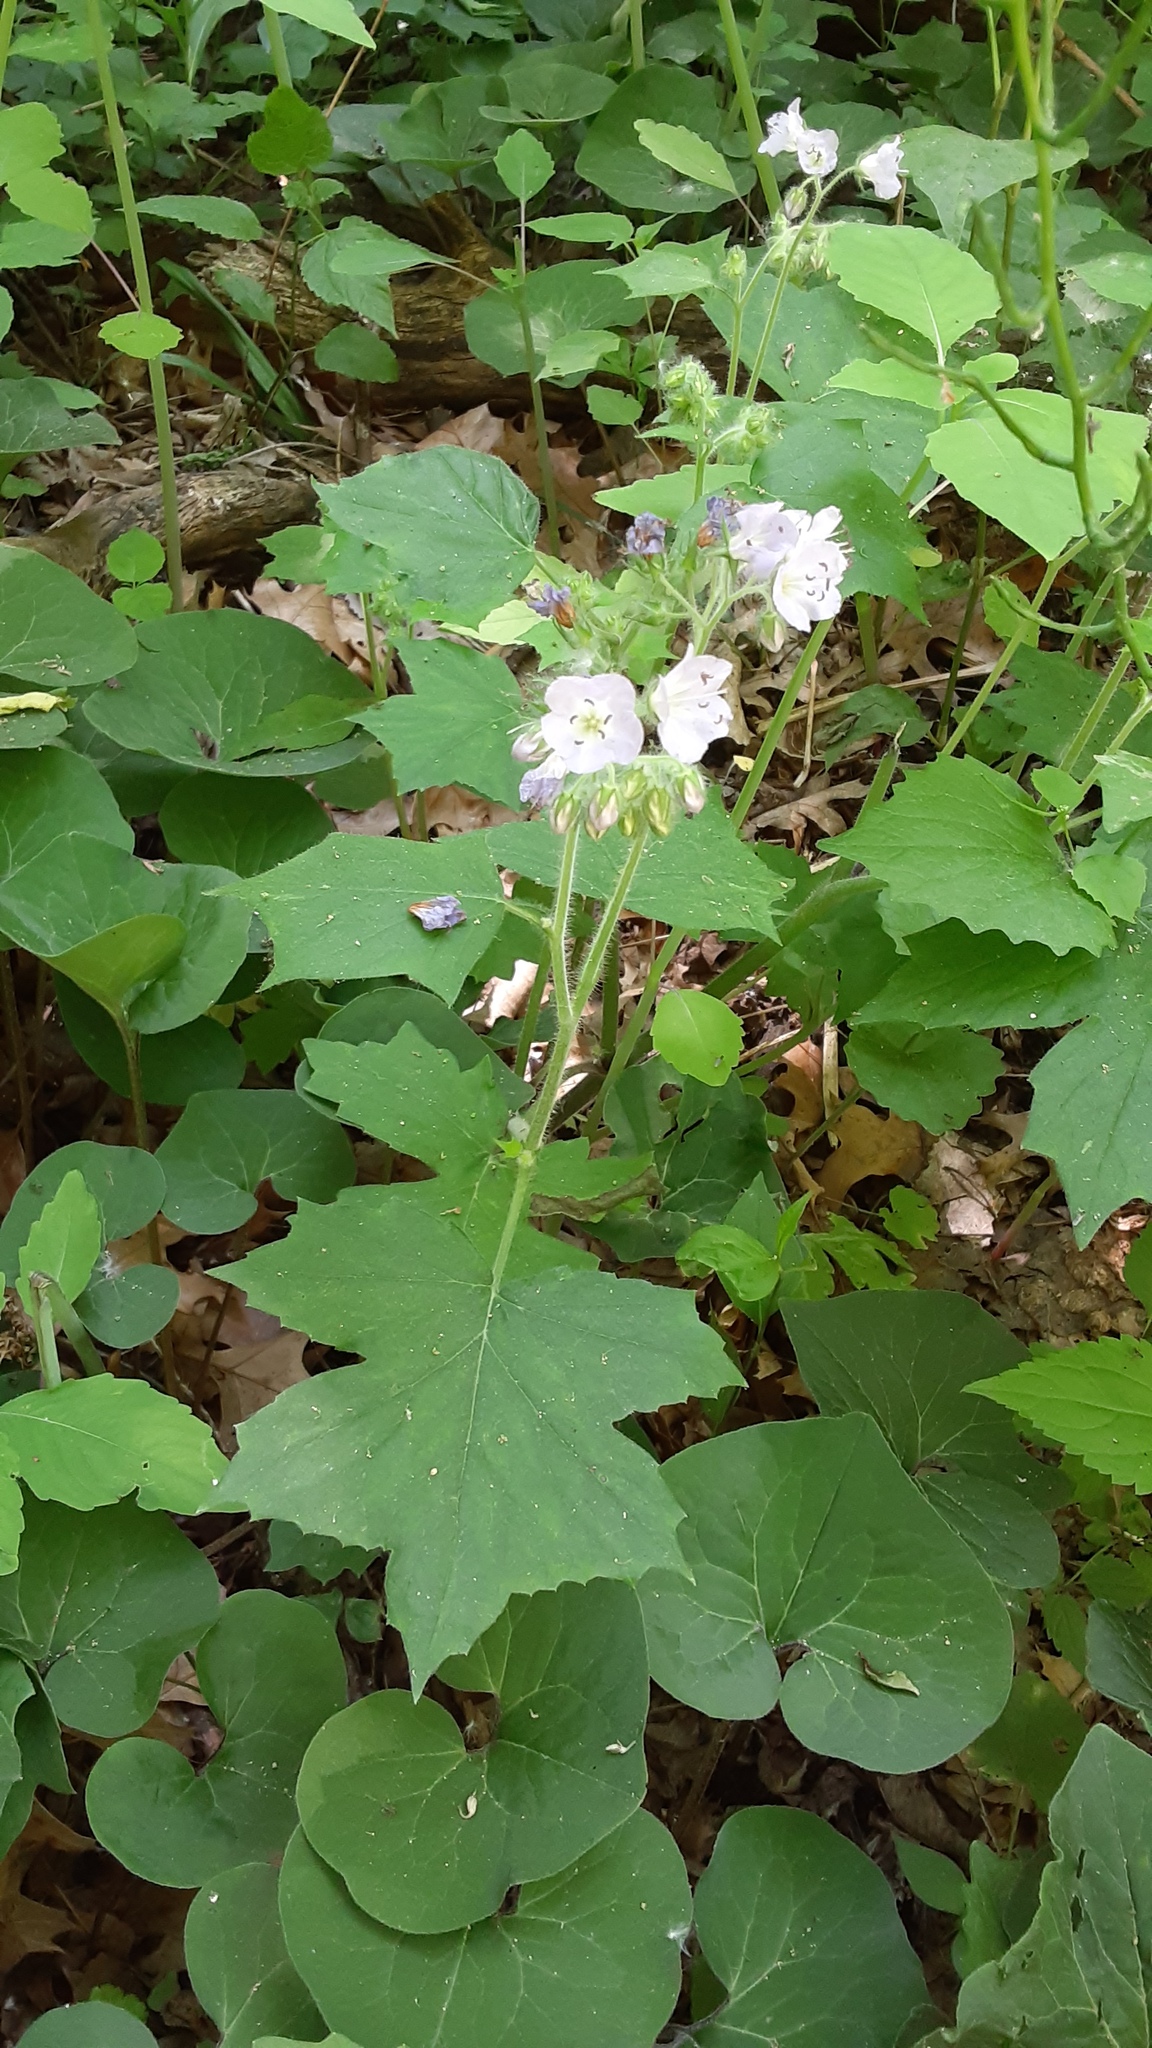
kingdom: Plantae
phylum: Tracheophyta
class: Magnoliopsida
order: Boraginales
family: Hydrophyllaceae
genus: Hydrophyllum
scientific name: Hydrophyllum appendiculatum
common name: Appendaged waterleaf
